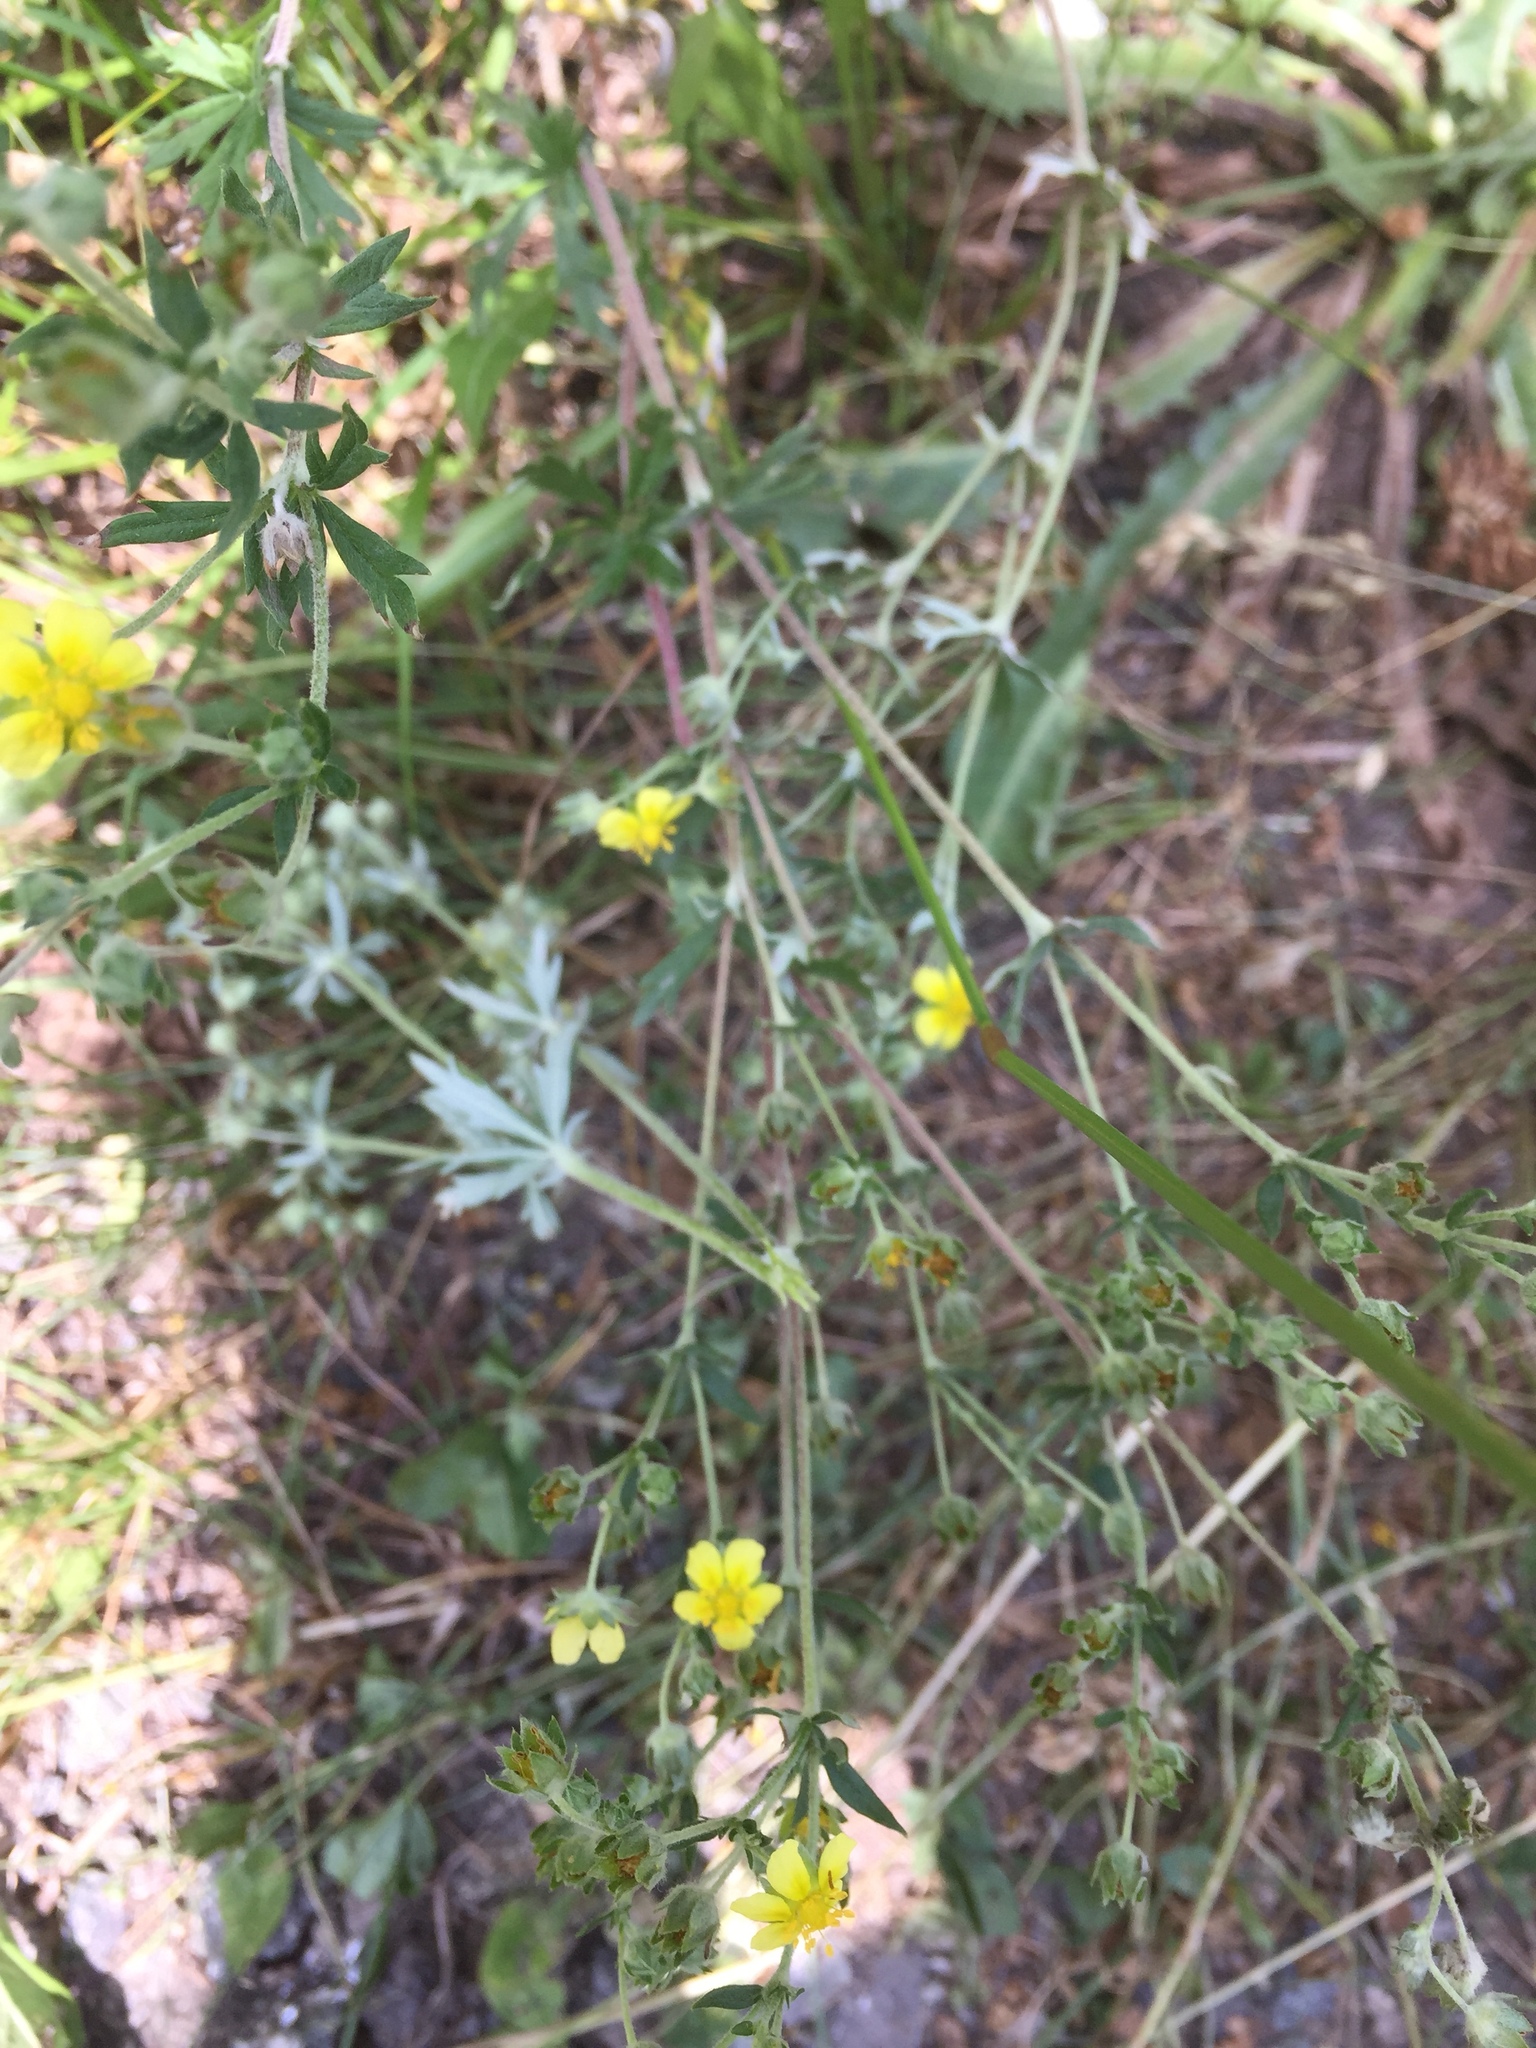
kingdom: Plantae
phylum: Tracheophyta
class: Magnoliopsida
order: Rosales
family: Rosaceae
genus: Potentilla
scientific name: Potentilla argentea
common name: Hoary cinquefoil
